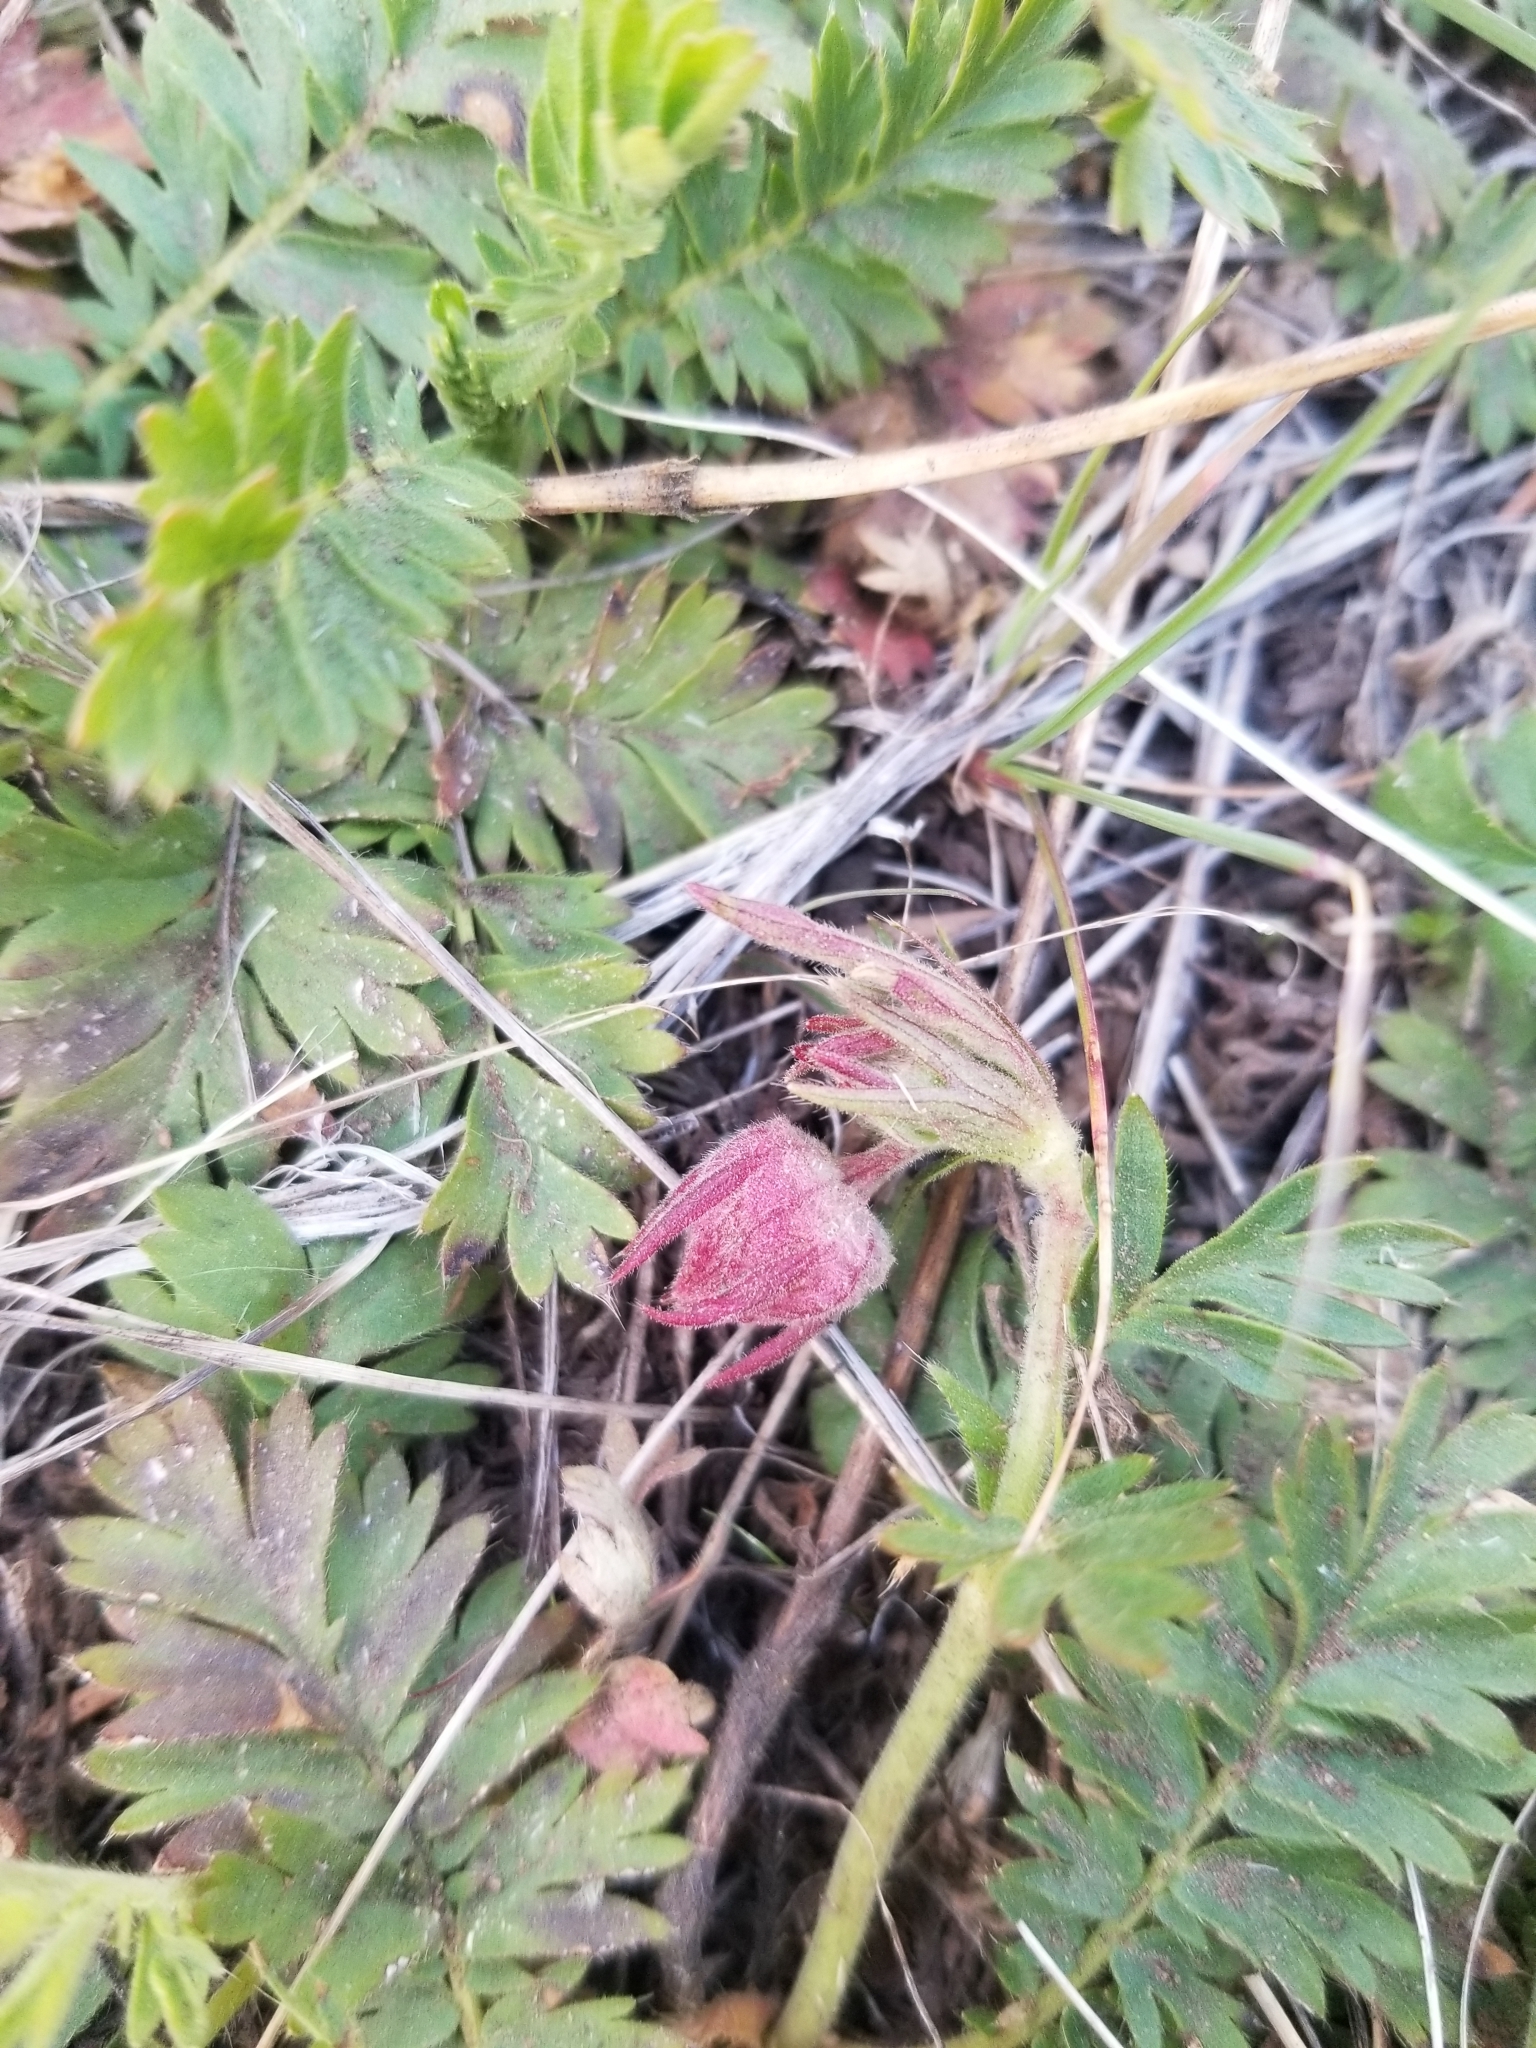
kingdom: Plantae
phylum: Tracheophyta
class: Magnoliopsida
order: Rosales
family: Rosaceae
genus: Geum
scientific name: Geum triflorum
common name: Old man's whiskers
